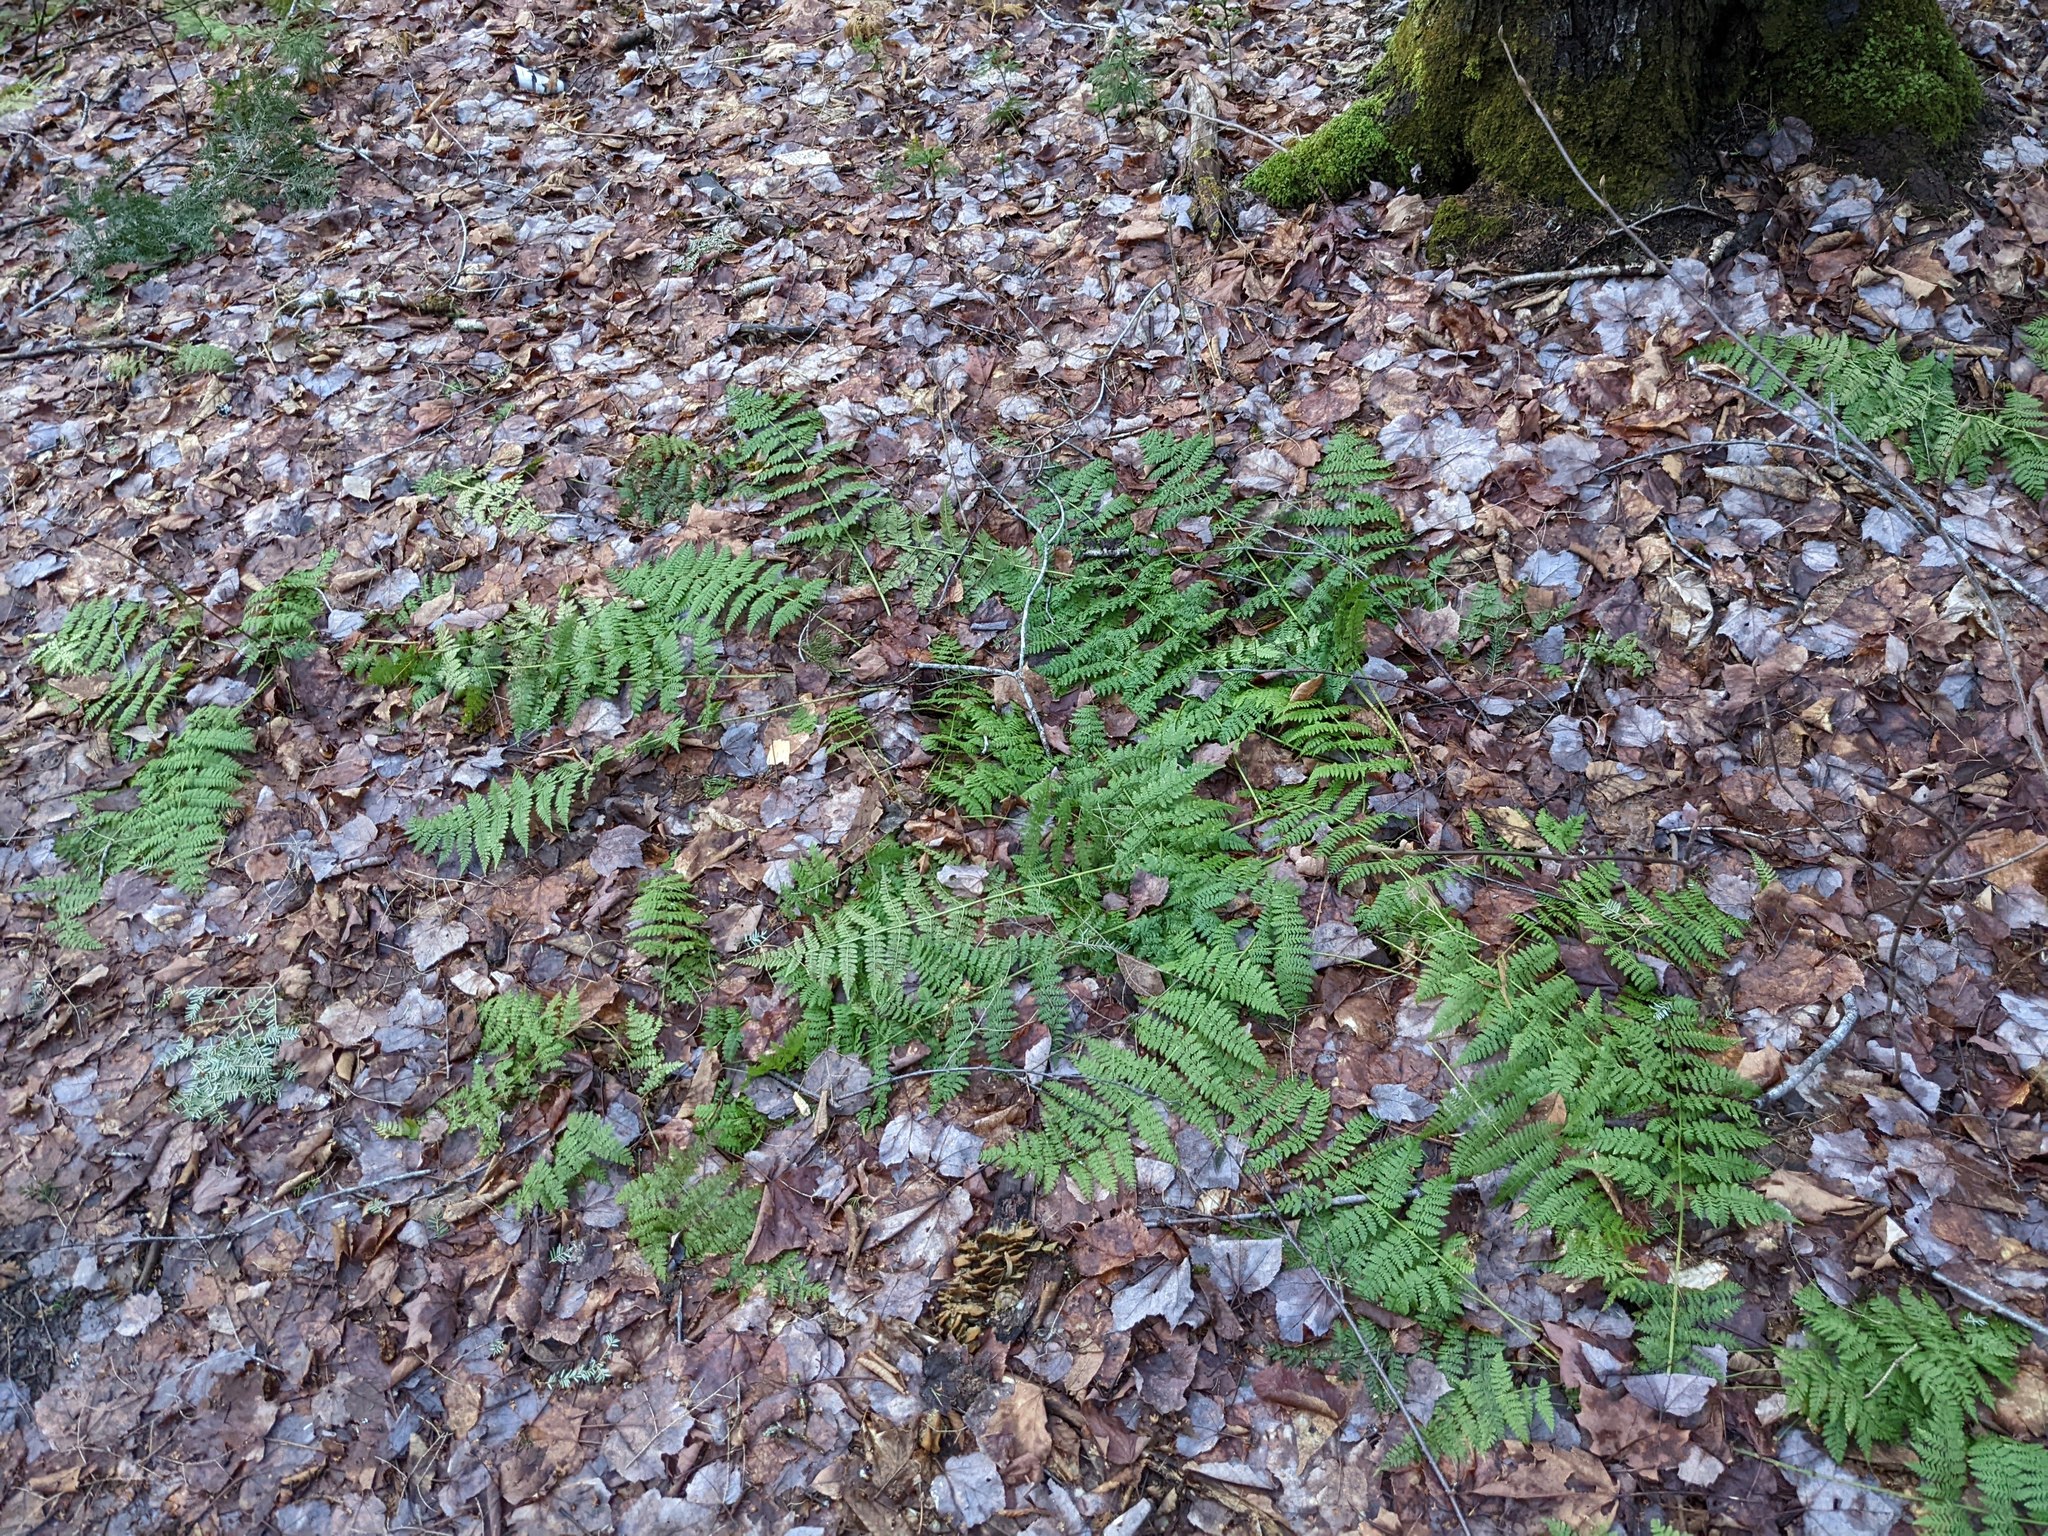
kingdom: Plantae
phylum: Tracheophyta
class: Polypodiopsida
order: Polypodiales
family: Dryopteridaceae
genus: Dryopteris
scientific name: Dryopteris intermedia
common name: Evergreen wood fern
